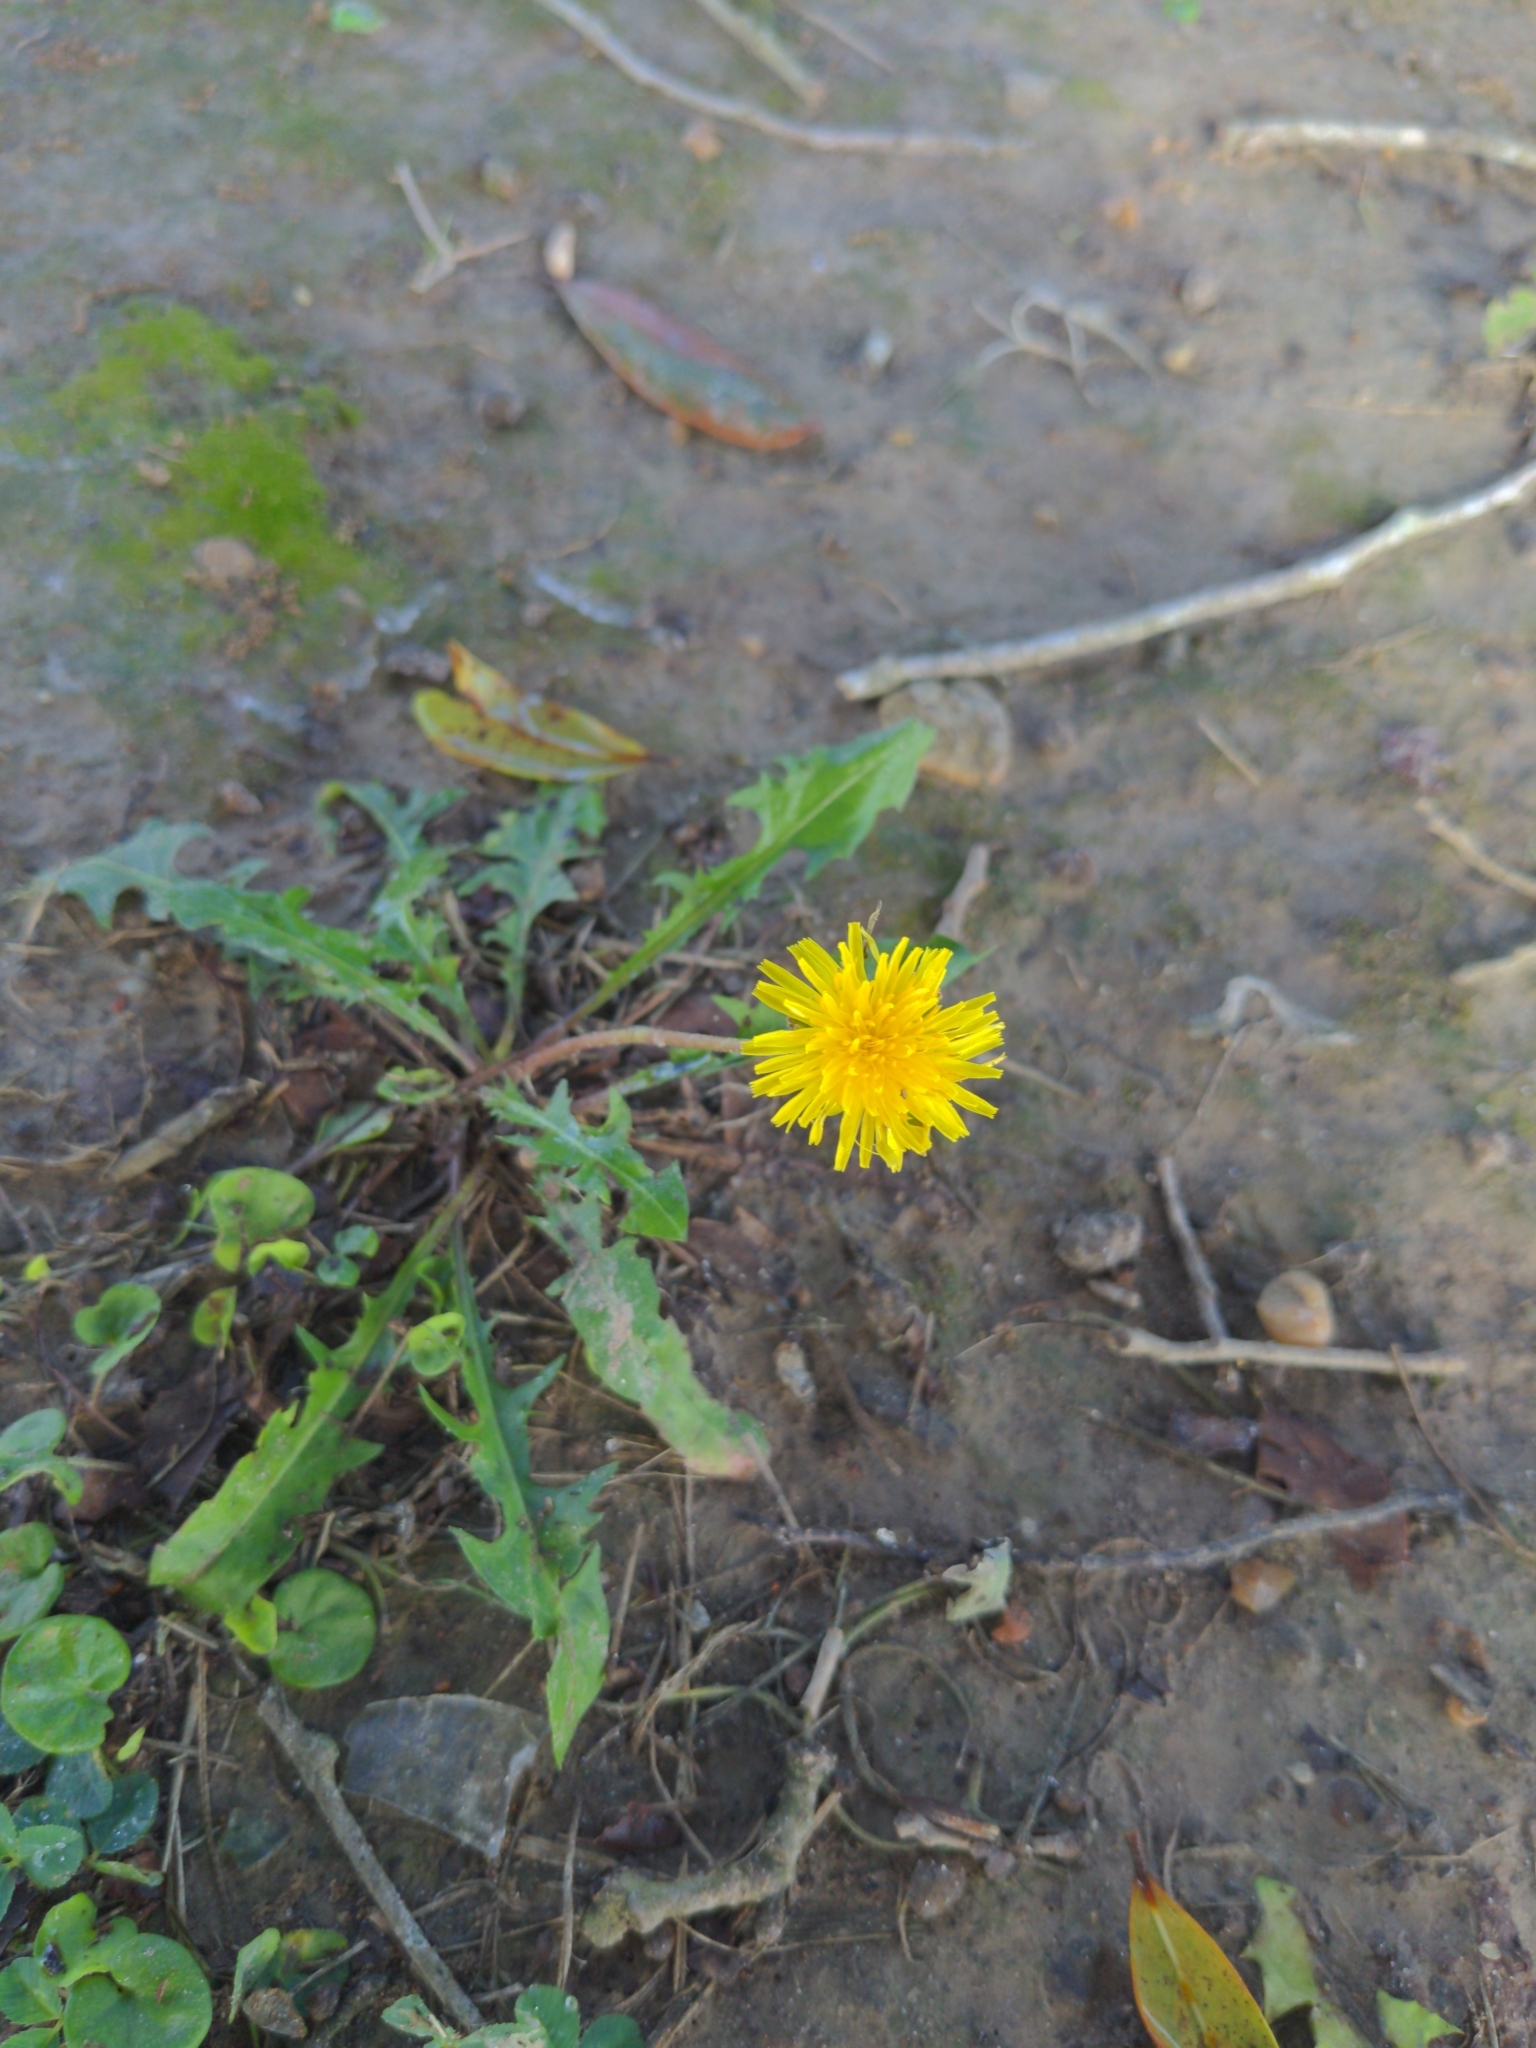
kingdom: Plantae
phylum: Tracheophyta
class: Magnoliopsida
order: Asterales
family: Asteraceae
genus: Taraxacum
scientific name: Taraxacum officinale
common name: Common dandelion
